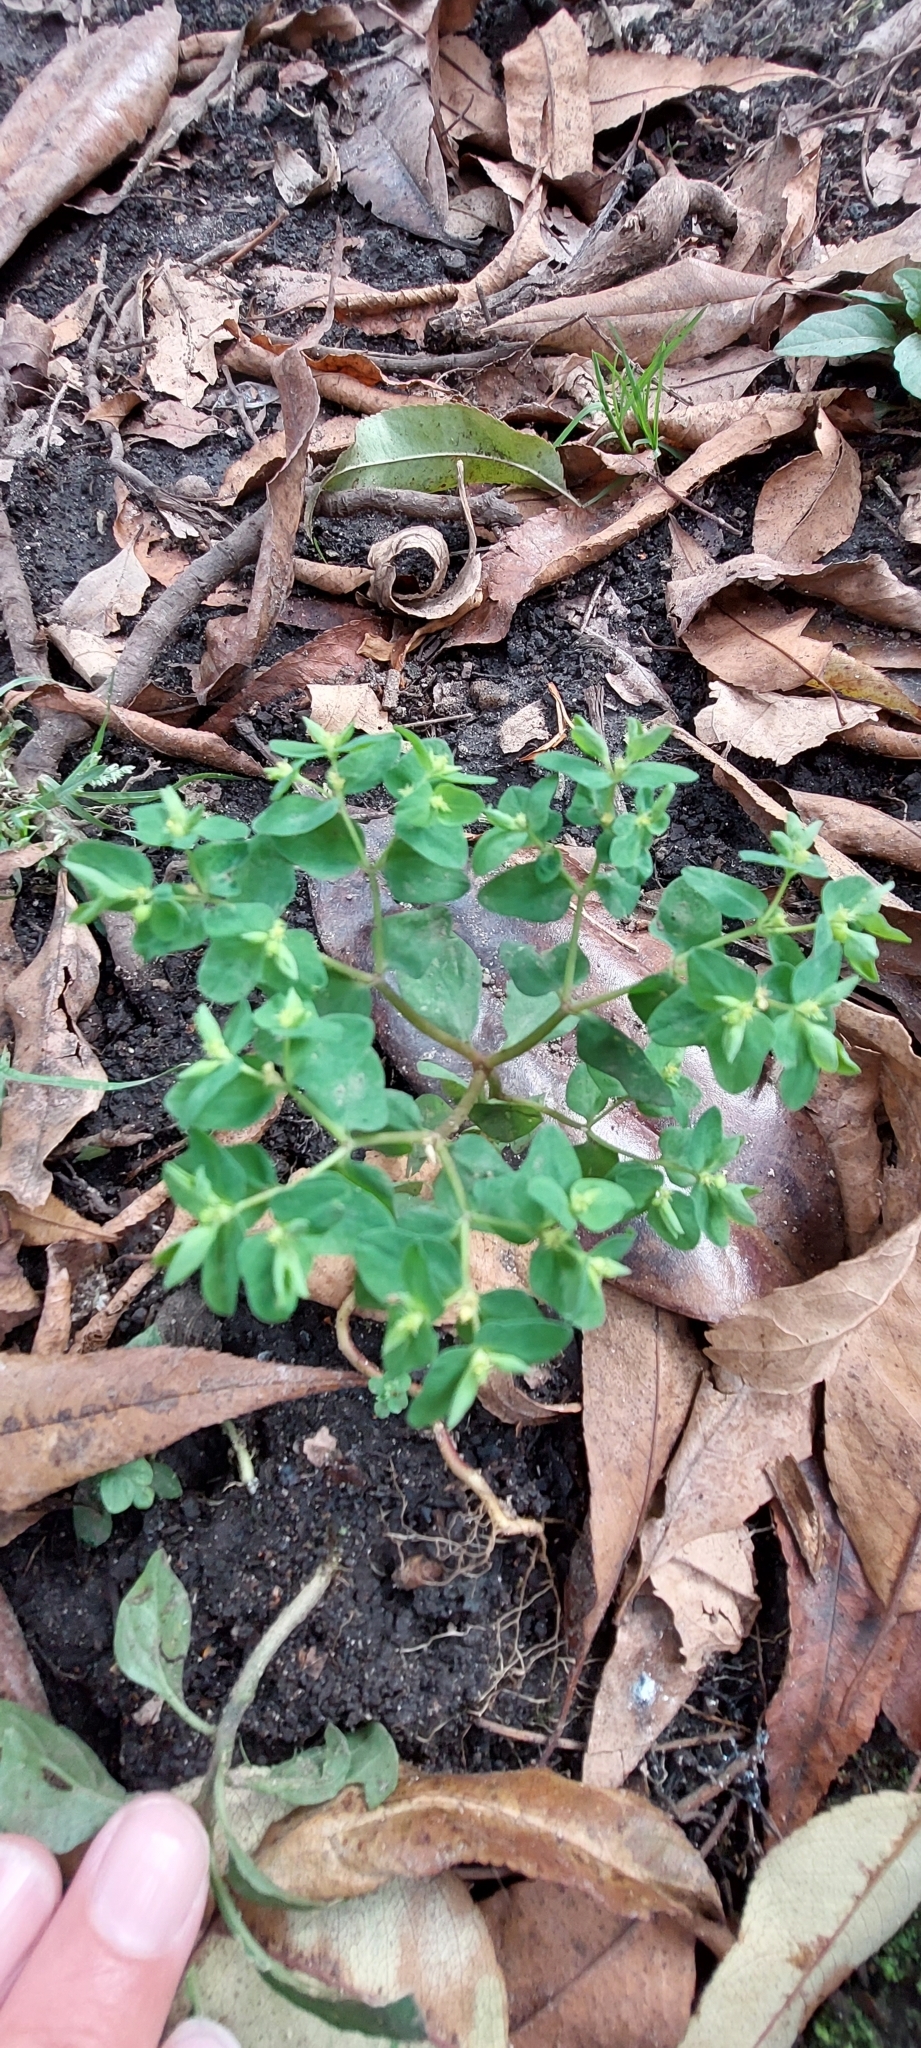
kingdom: Plantae
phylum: Tracheophyta
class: Magnoliopsida
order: Malpighiales
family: Euphorbiaceae
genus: Euphorbia
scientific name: Euphorbia peplus
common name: Petty spurge
